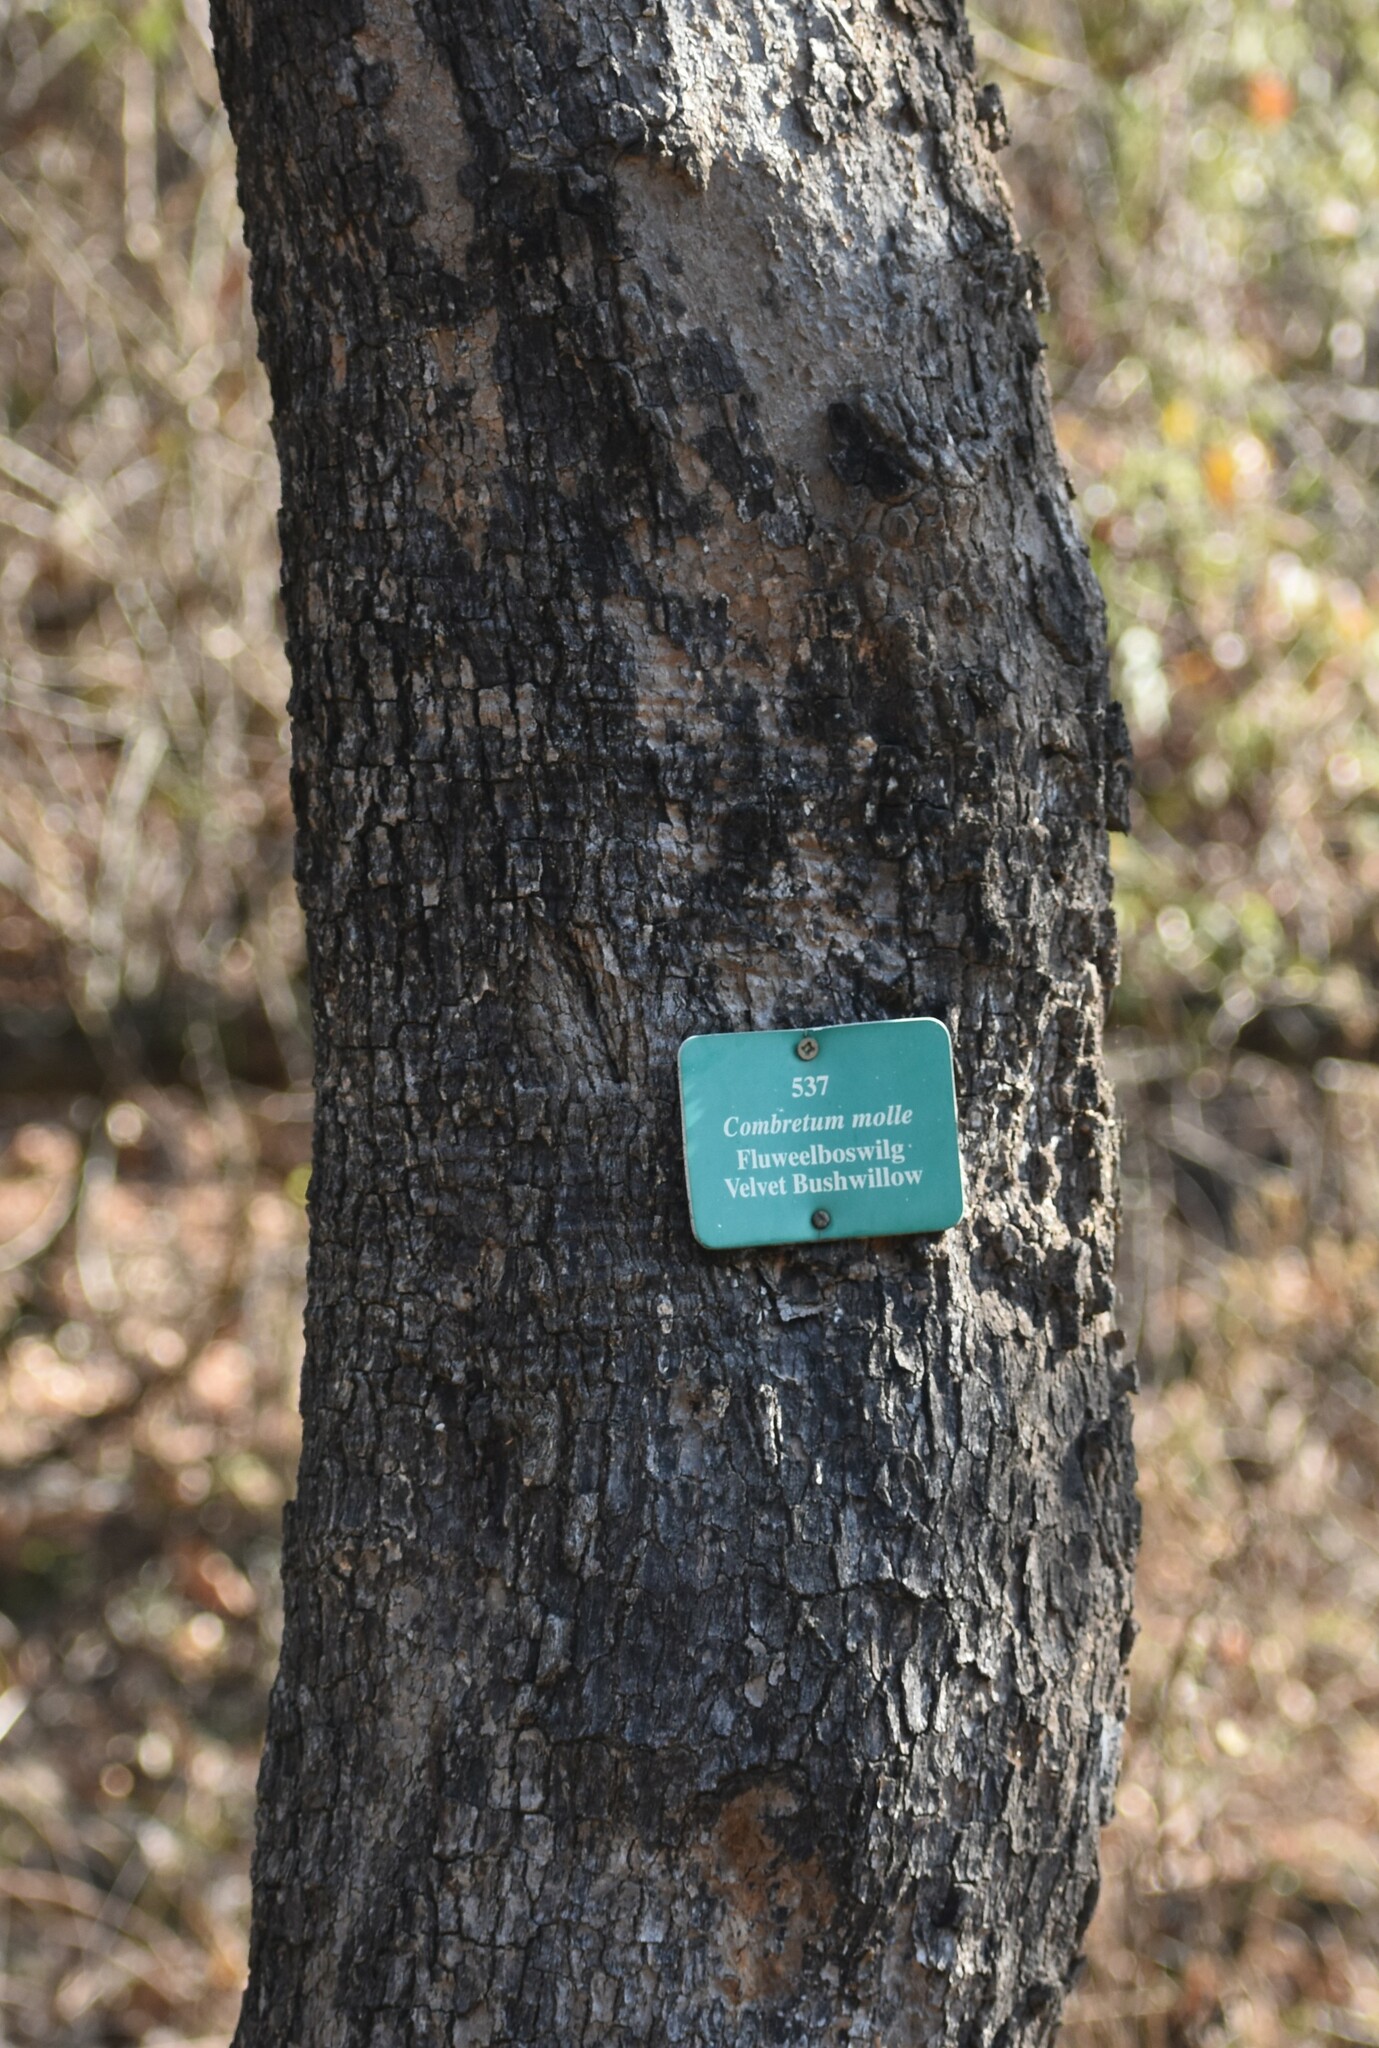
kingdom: Plantae
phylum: Tracheophyta
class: Magnoliopsida
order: Myrtales
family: Combretaceae
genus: Combretum
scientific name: Combretum molle
